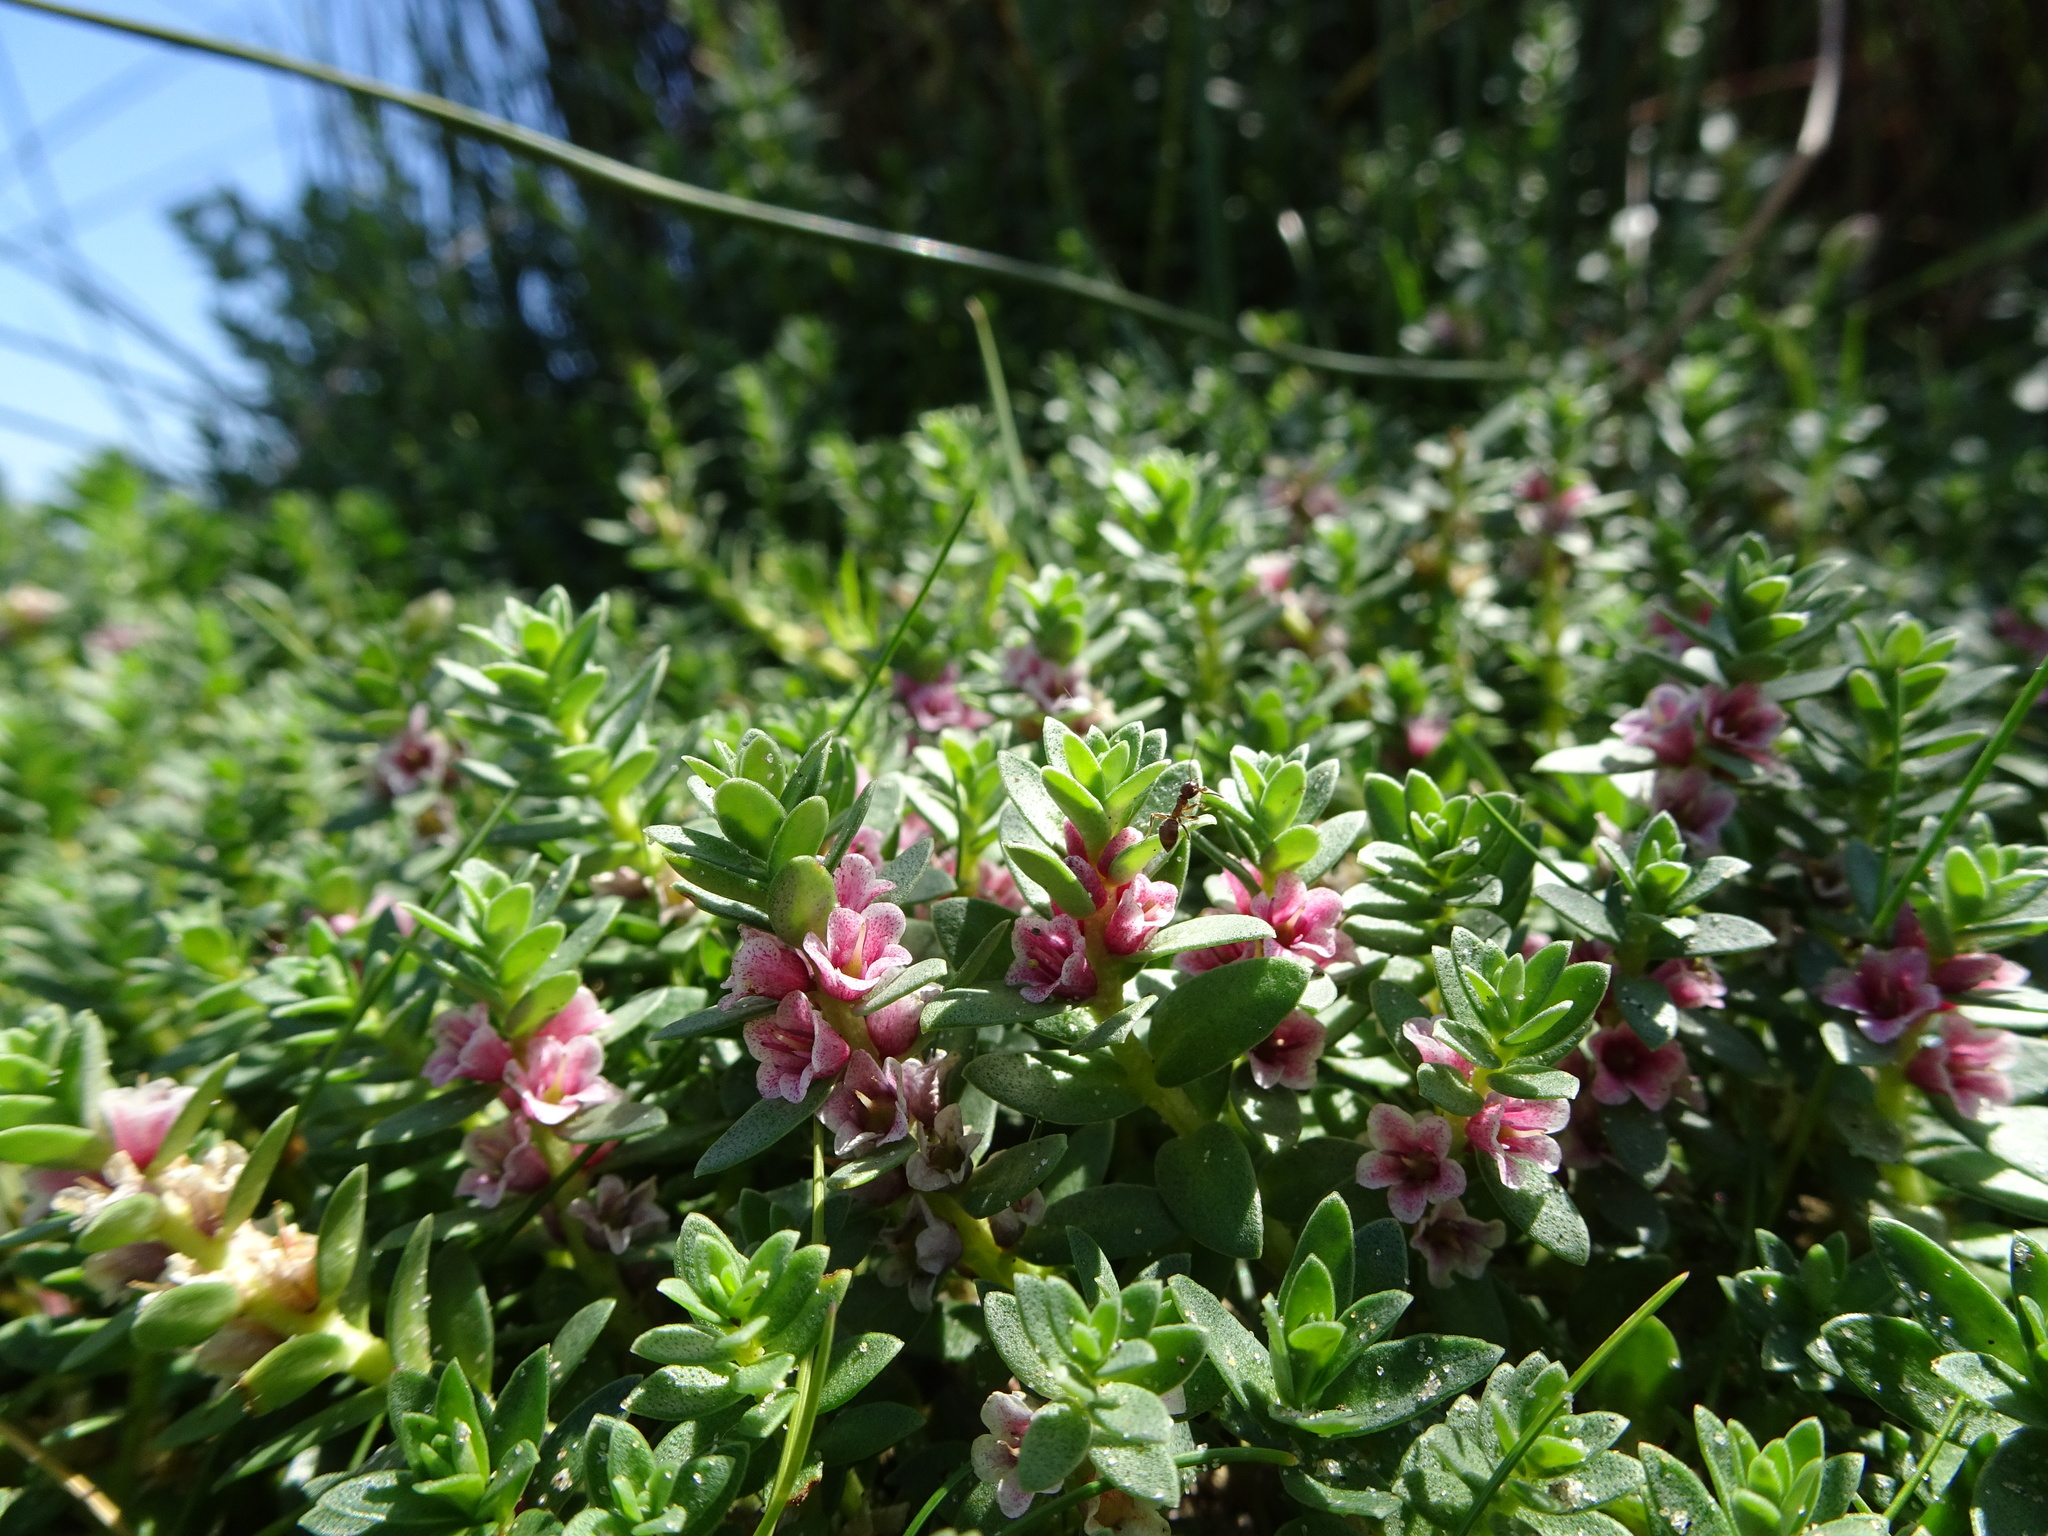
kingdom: Plantae
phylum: Tracheophyta
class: Magnoliopsida
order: Ericales
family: Primulaceae
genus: Lysimachia
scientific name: Lysimachia maritima
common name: Sea milkwort
